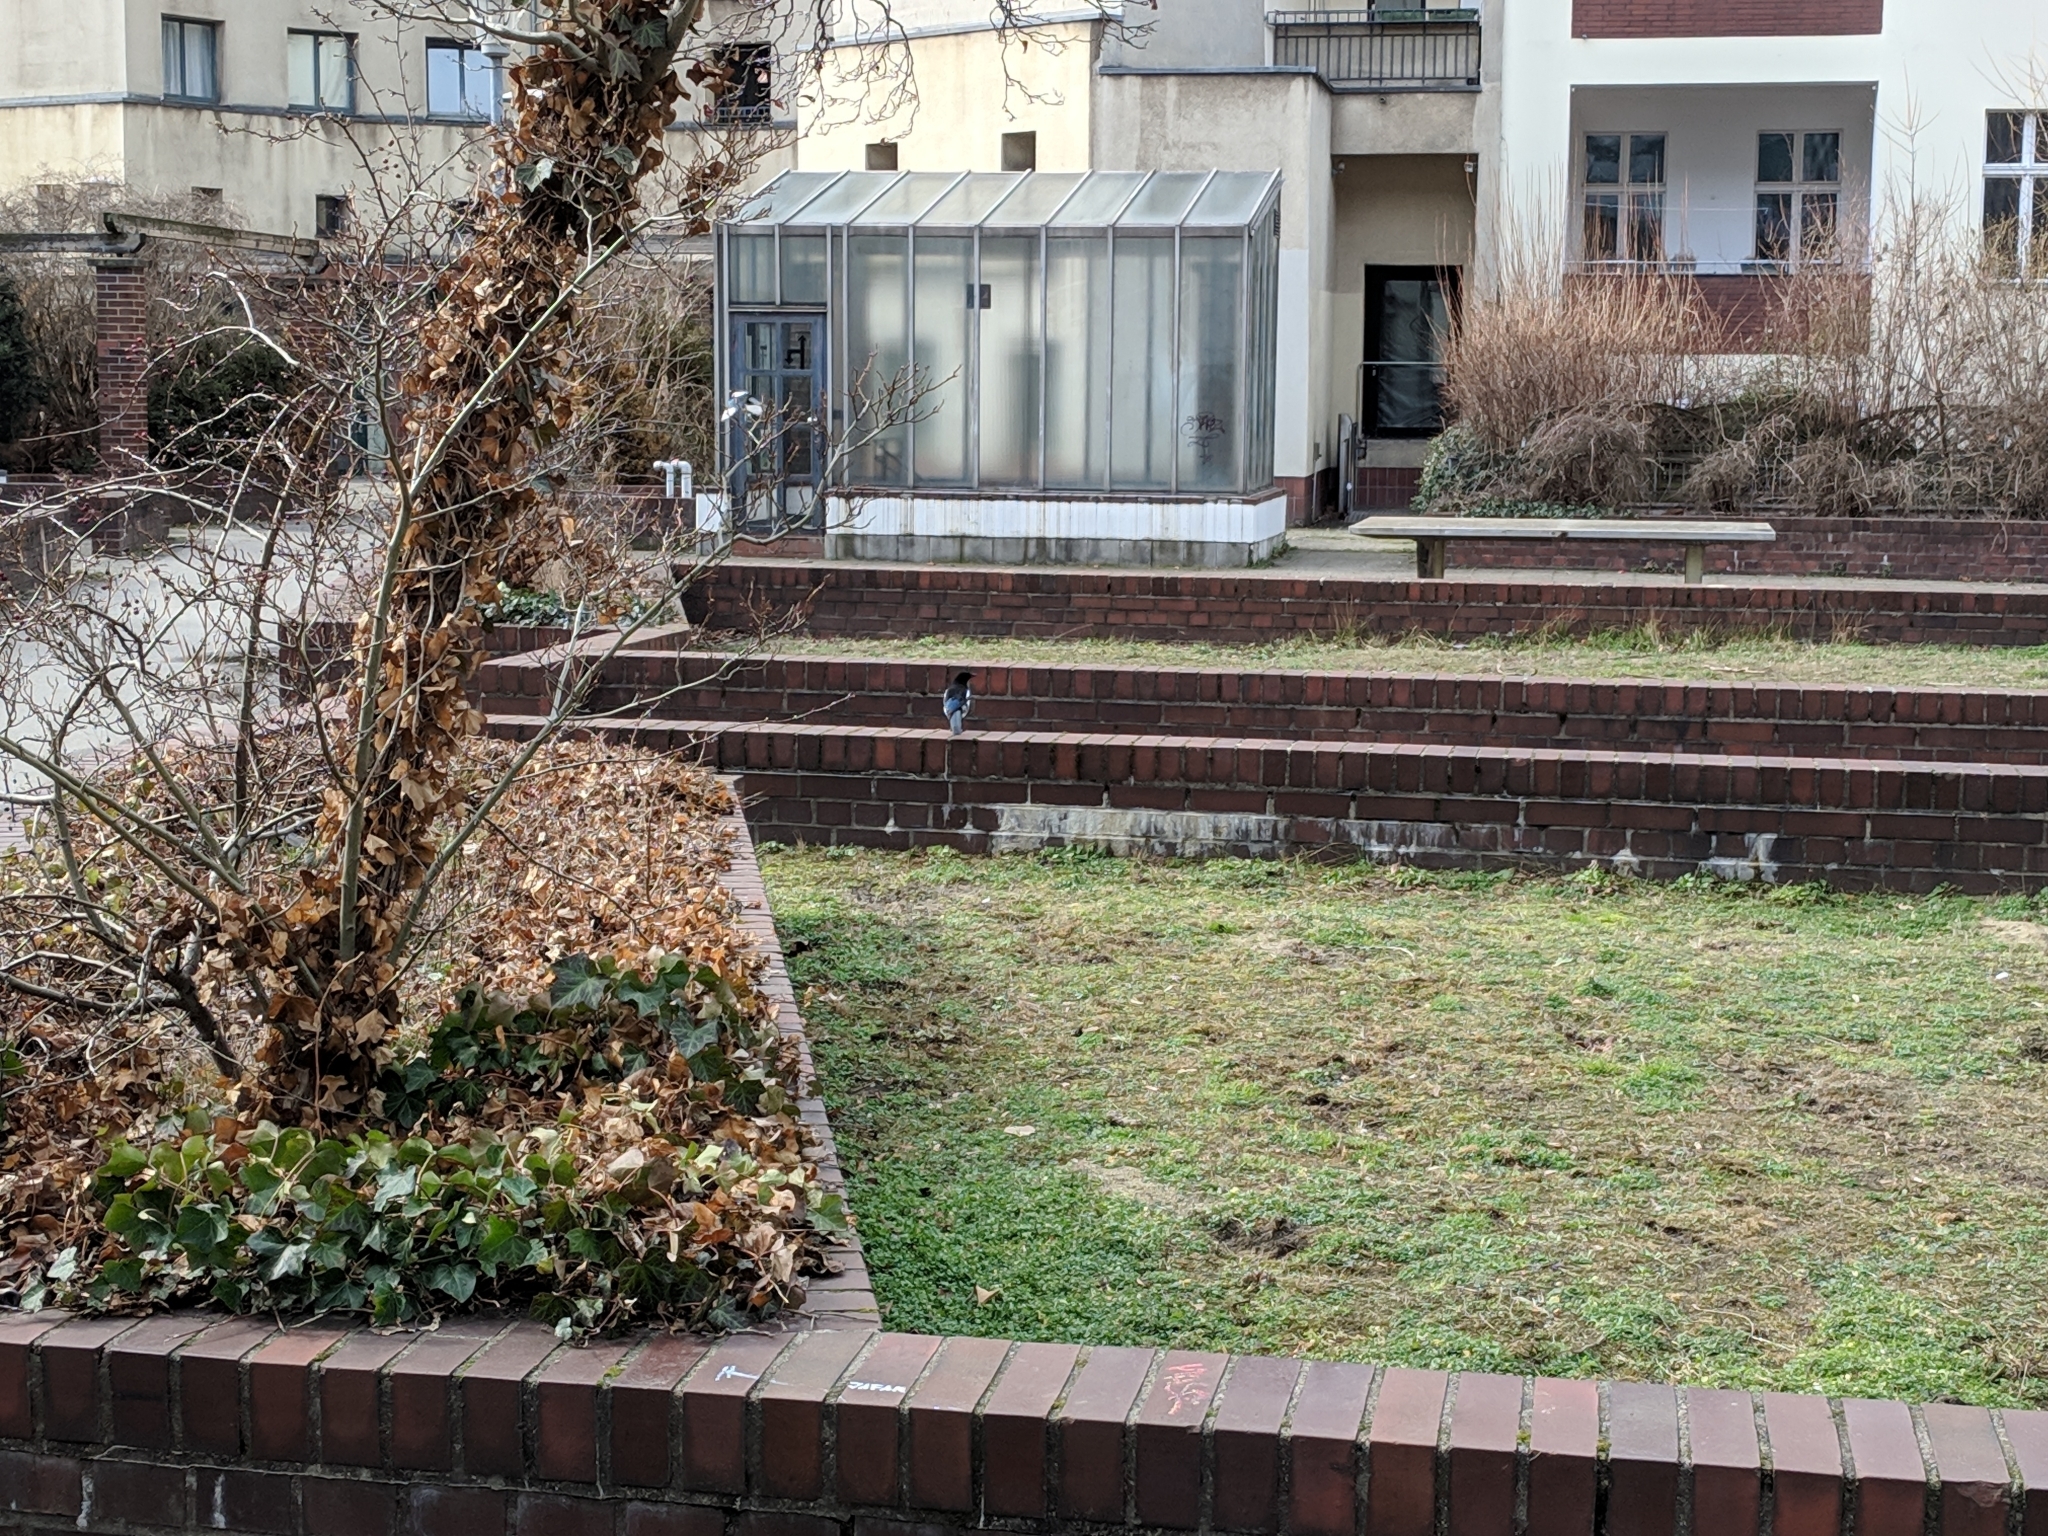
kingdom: Animalia
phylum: Chordata
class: Aves
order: Passeriformes
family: Corvidae
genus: Pica
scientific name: Pica pica
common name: Eurasian magpie
